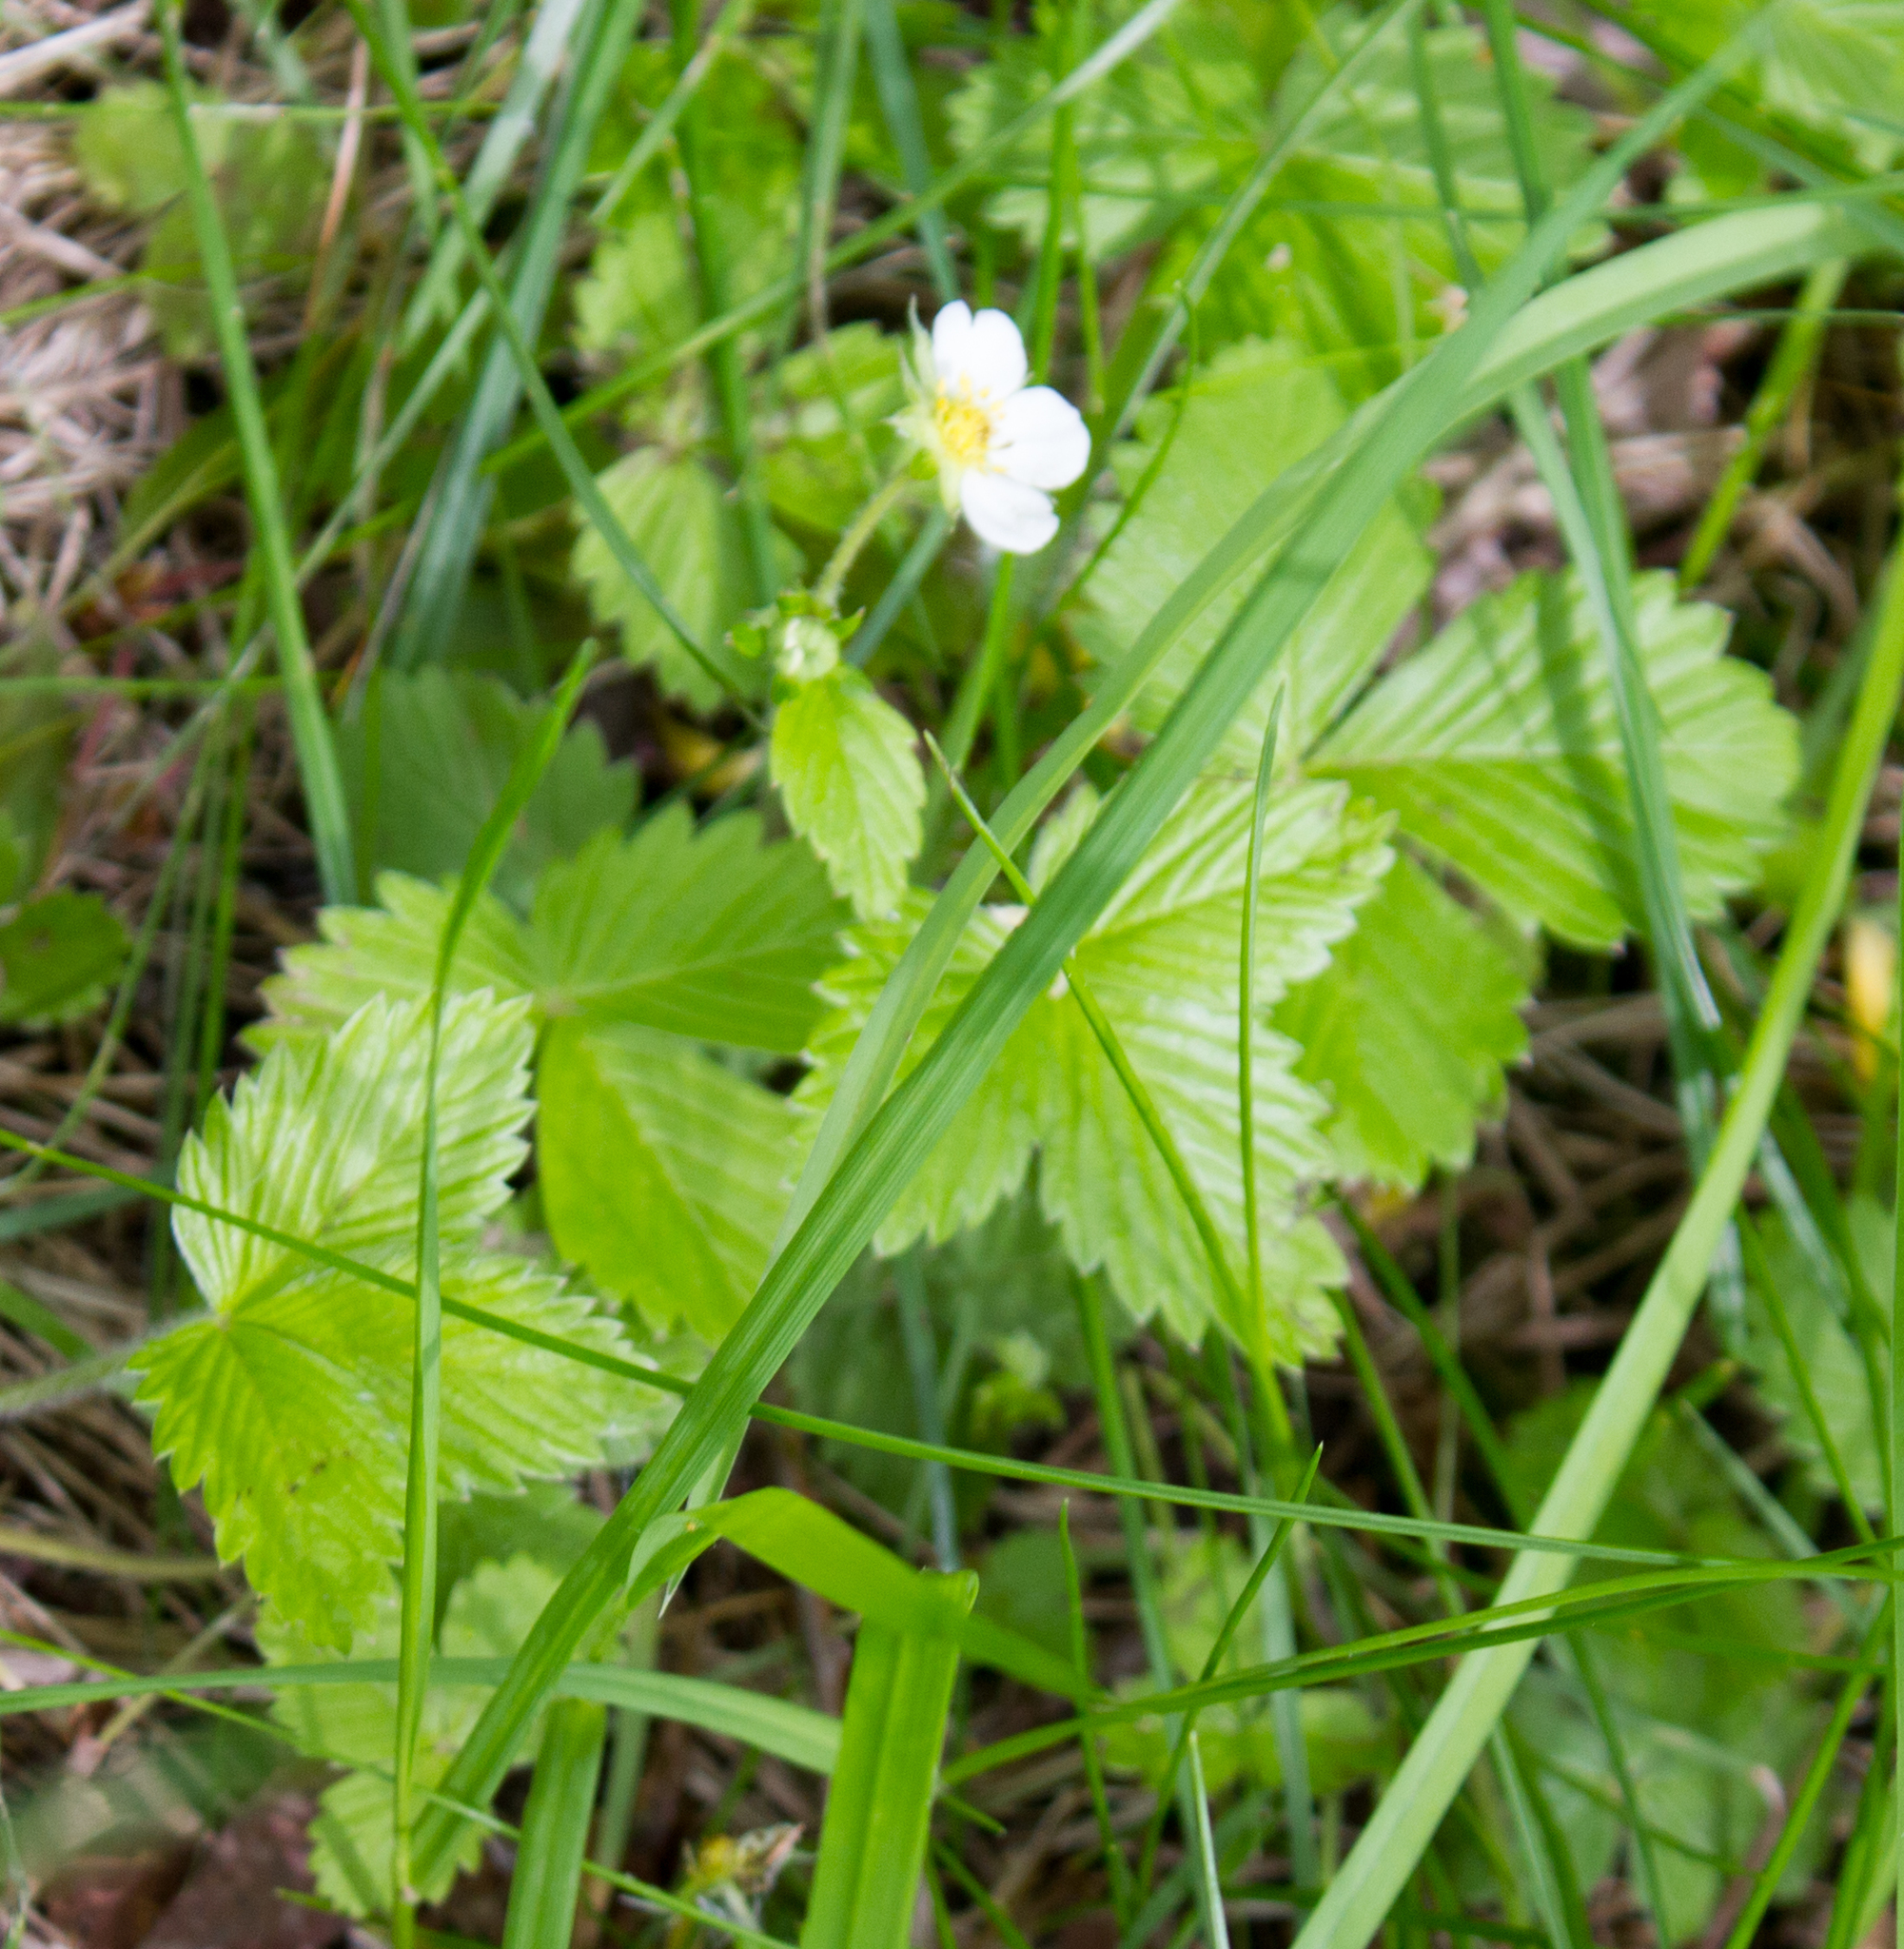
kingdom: Plantae
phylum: Tracheophyta
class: Magnoliopsida
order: Rosales
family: Rosaceae
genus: Fragaria
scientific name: Fragaria vesca
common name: Wild strawberry
